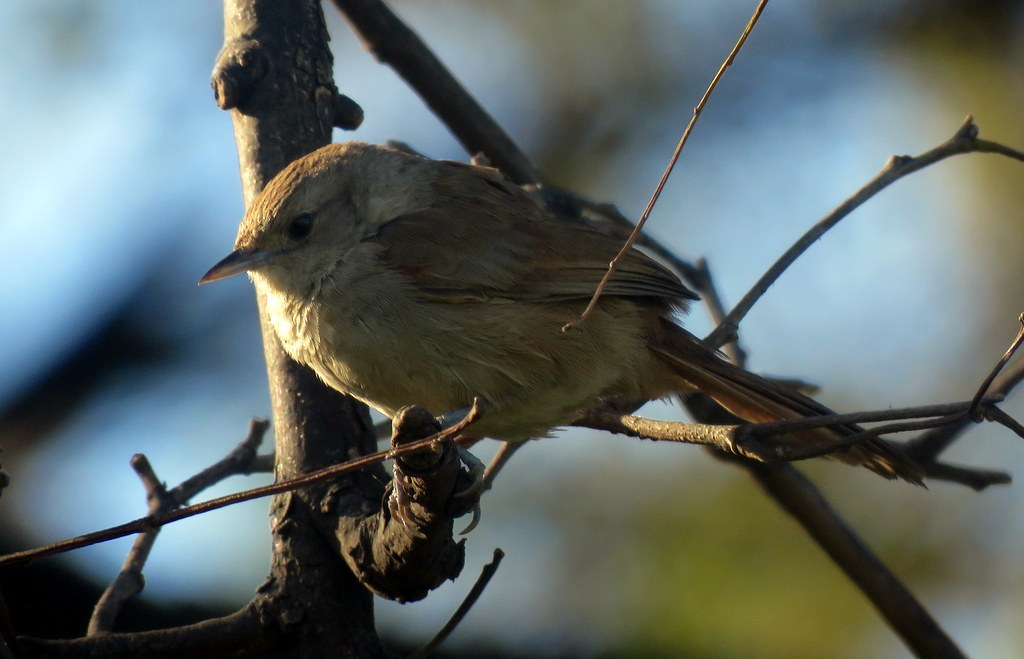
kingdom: Animalia
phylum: Chordata
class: Aves
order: Passeriformes
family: Furnariidae
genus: Phacellodomus
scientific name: Phacellodomus sibilatrix
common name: Little thornbird
